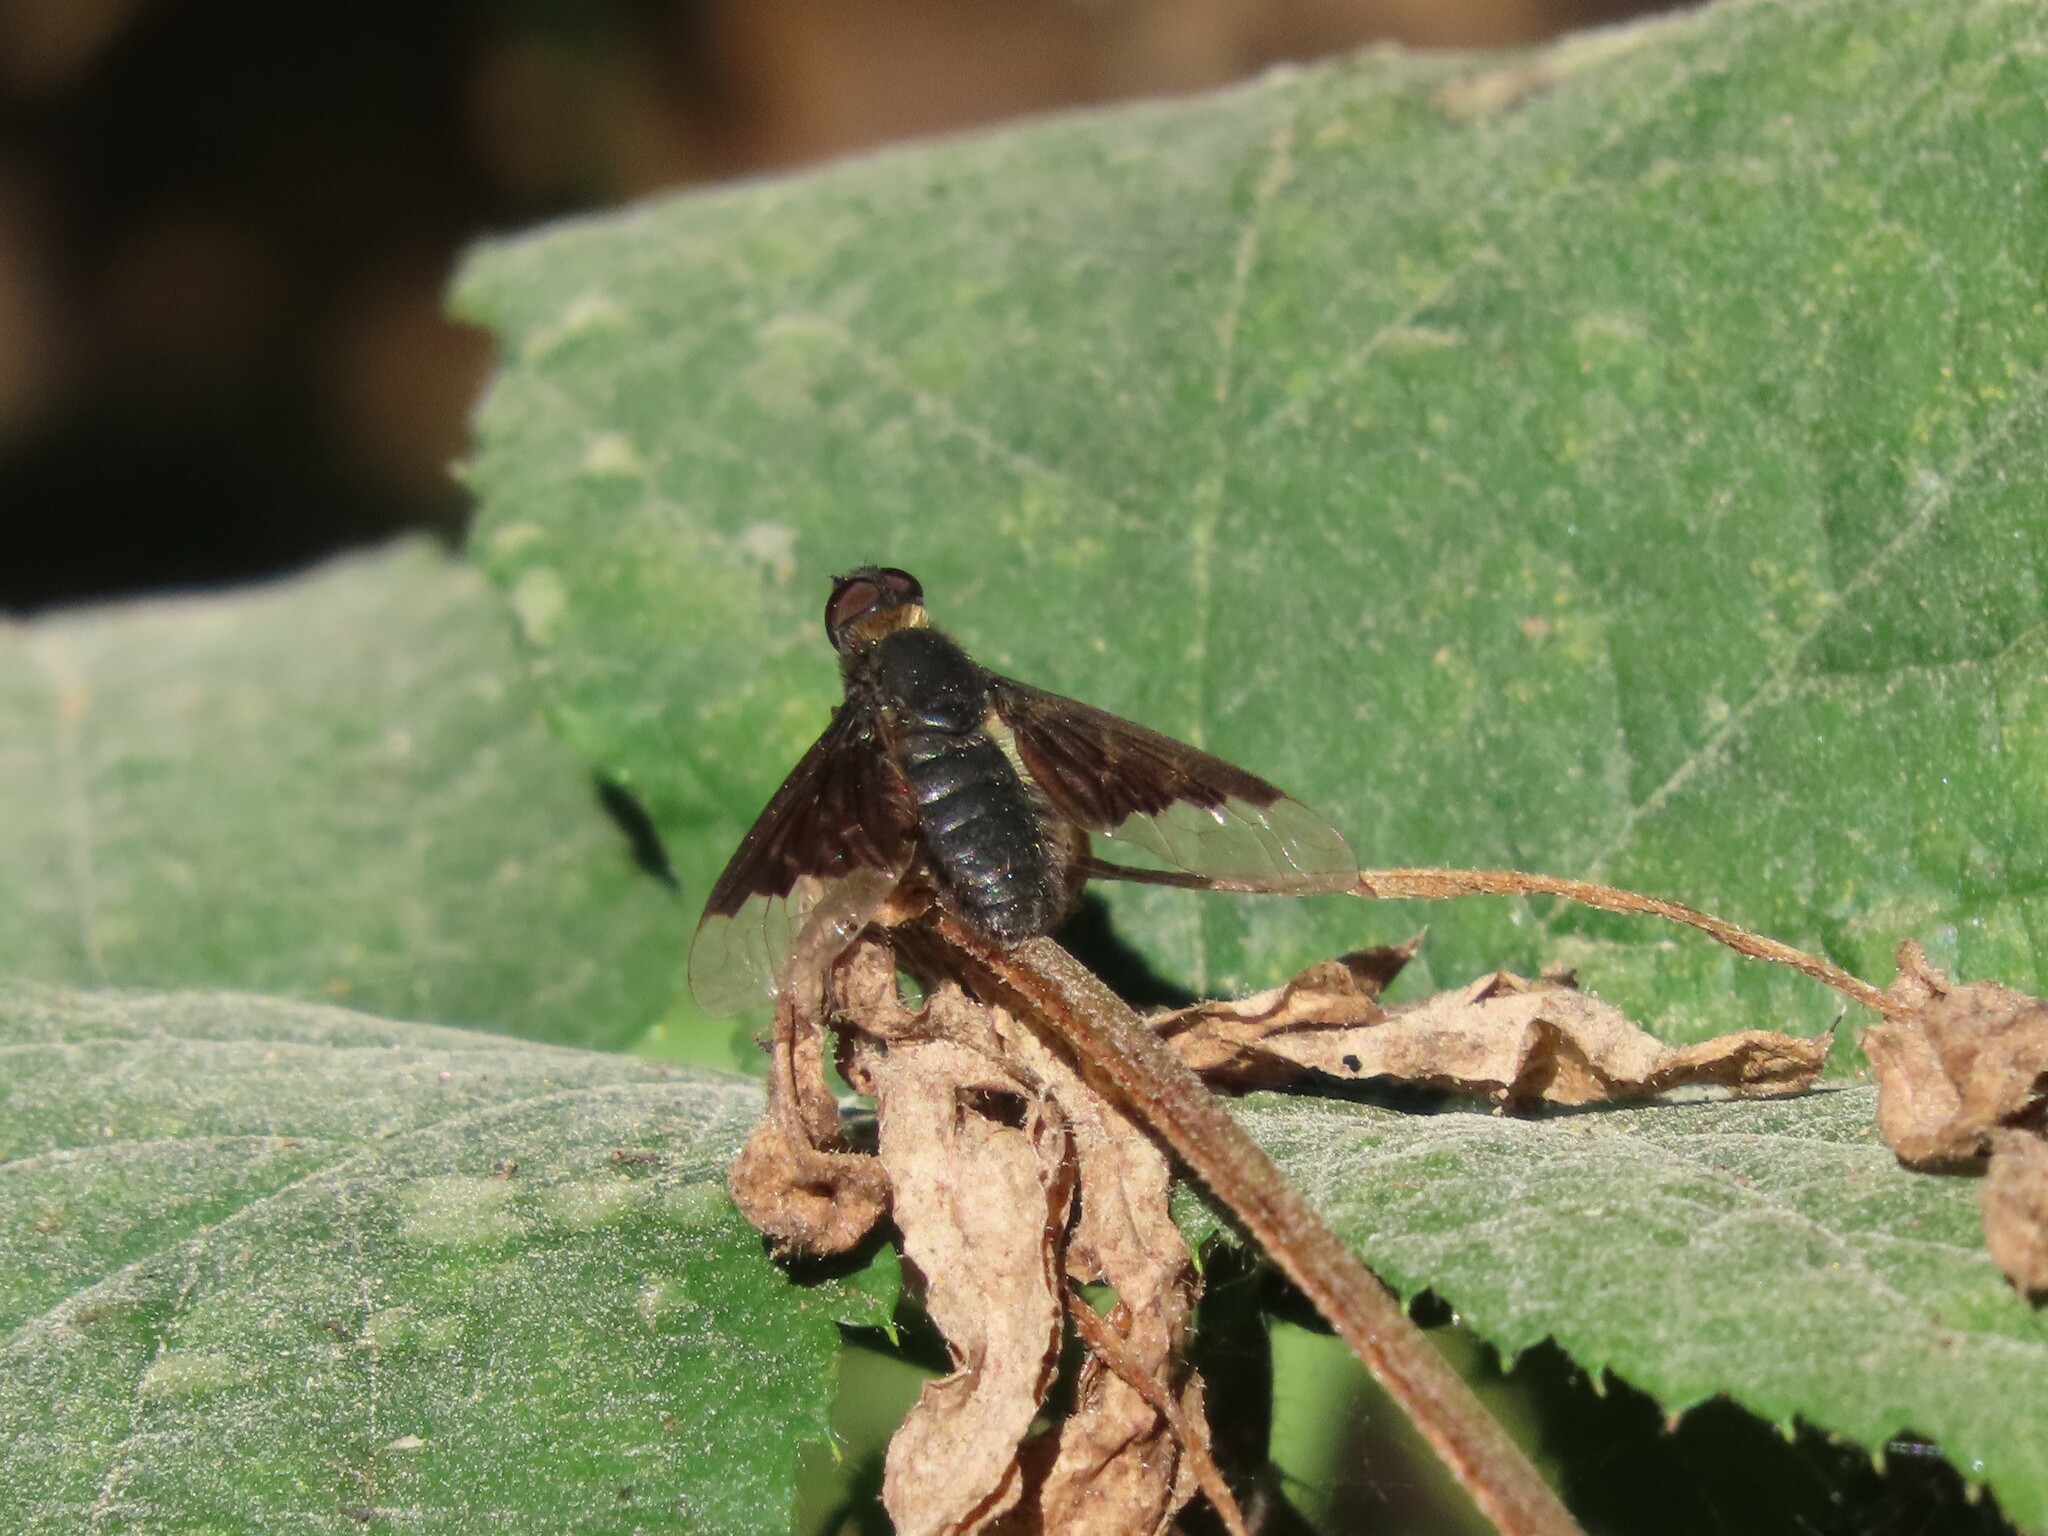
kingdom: Animalia
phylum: Arthropoda
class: Insecta
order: Diptera
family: Bombyliidae
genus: Hemipenthes
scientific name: Hemipenthes morio
